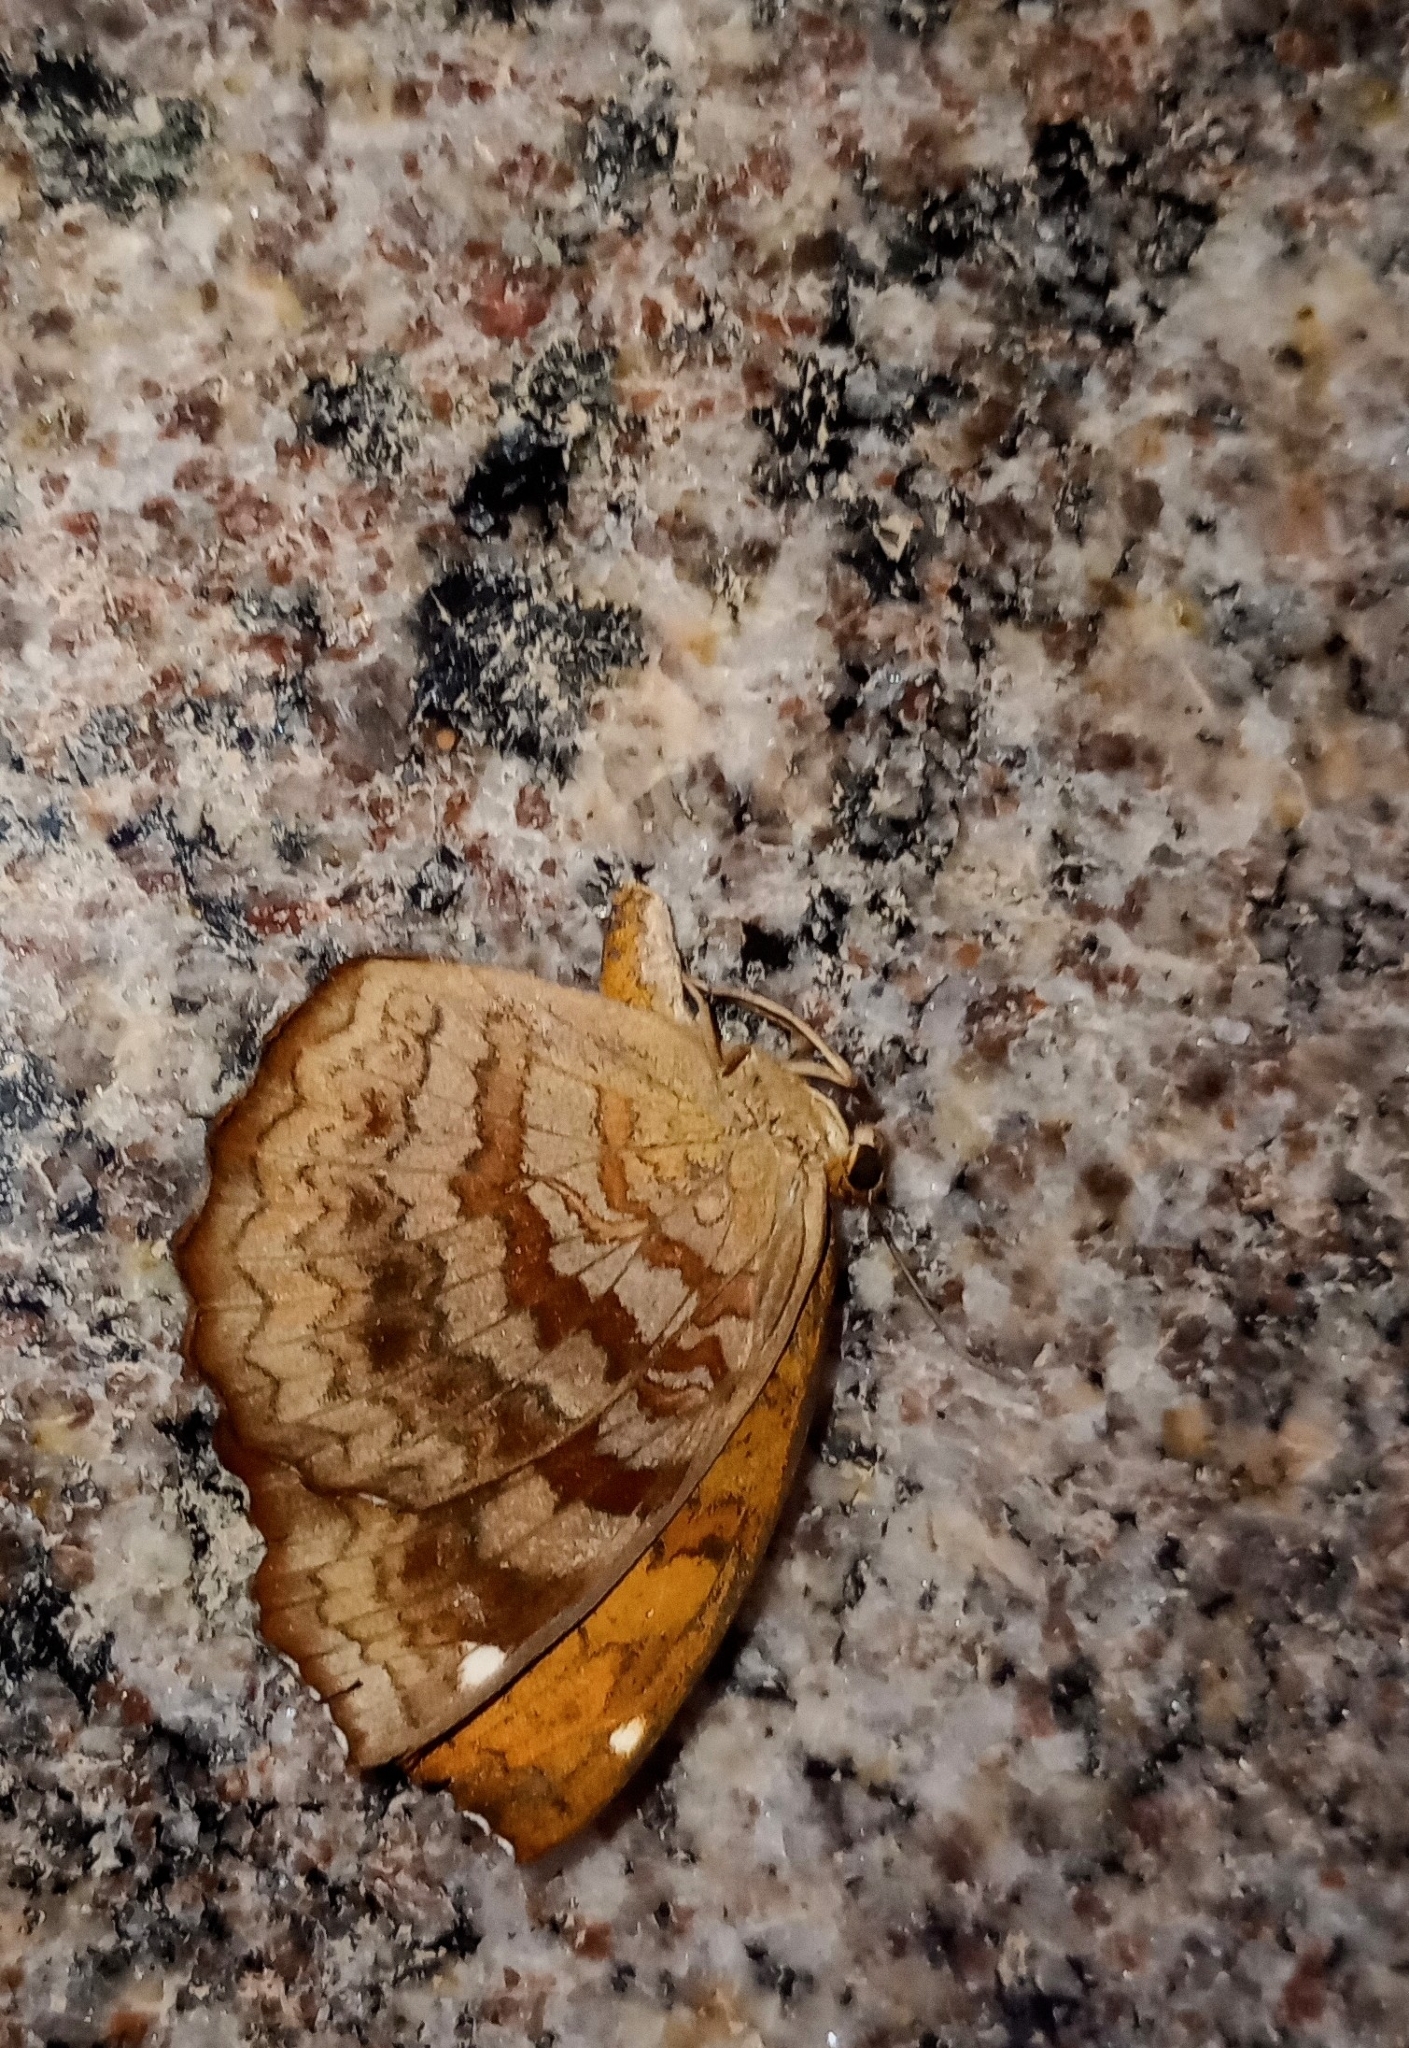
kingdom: Animalia
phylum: Arthropoda
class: Insecta
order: Lepidoptera
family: Nymphalidae
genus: Ariadne
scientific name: Ariadne merione
